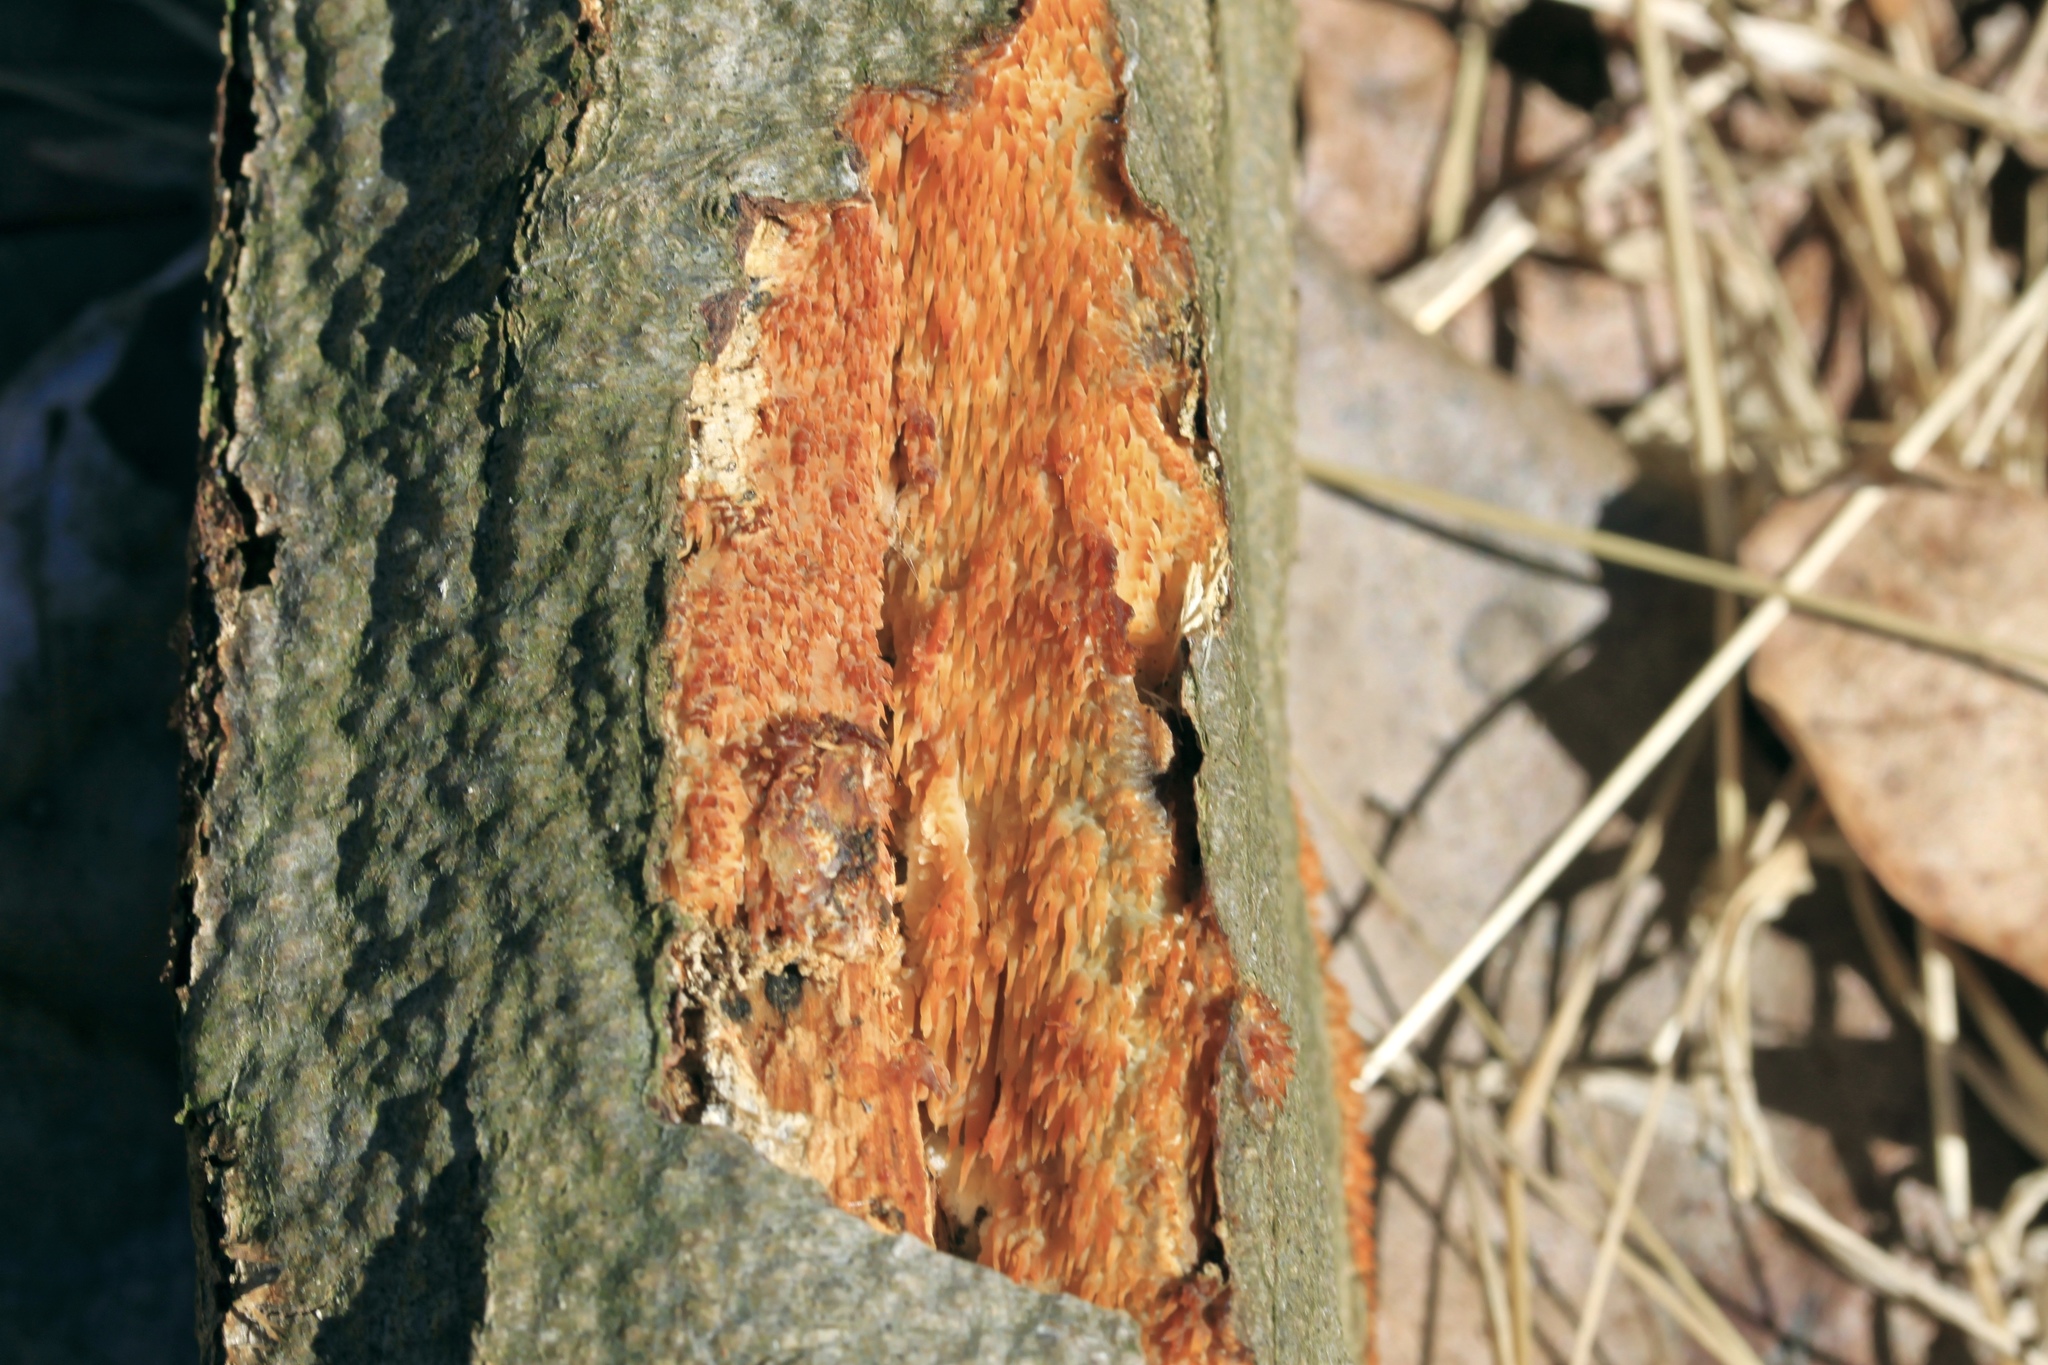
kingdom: Fungi
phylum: Basidiomycota
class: Agaricomycetes
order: Agaricales
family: Radulomycetaceae
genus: Radulomyces
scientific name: Radulomyces copelandii
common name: Asian beauty
